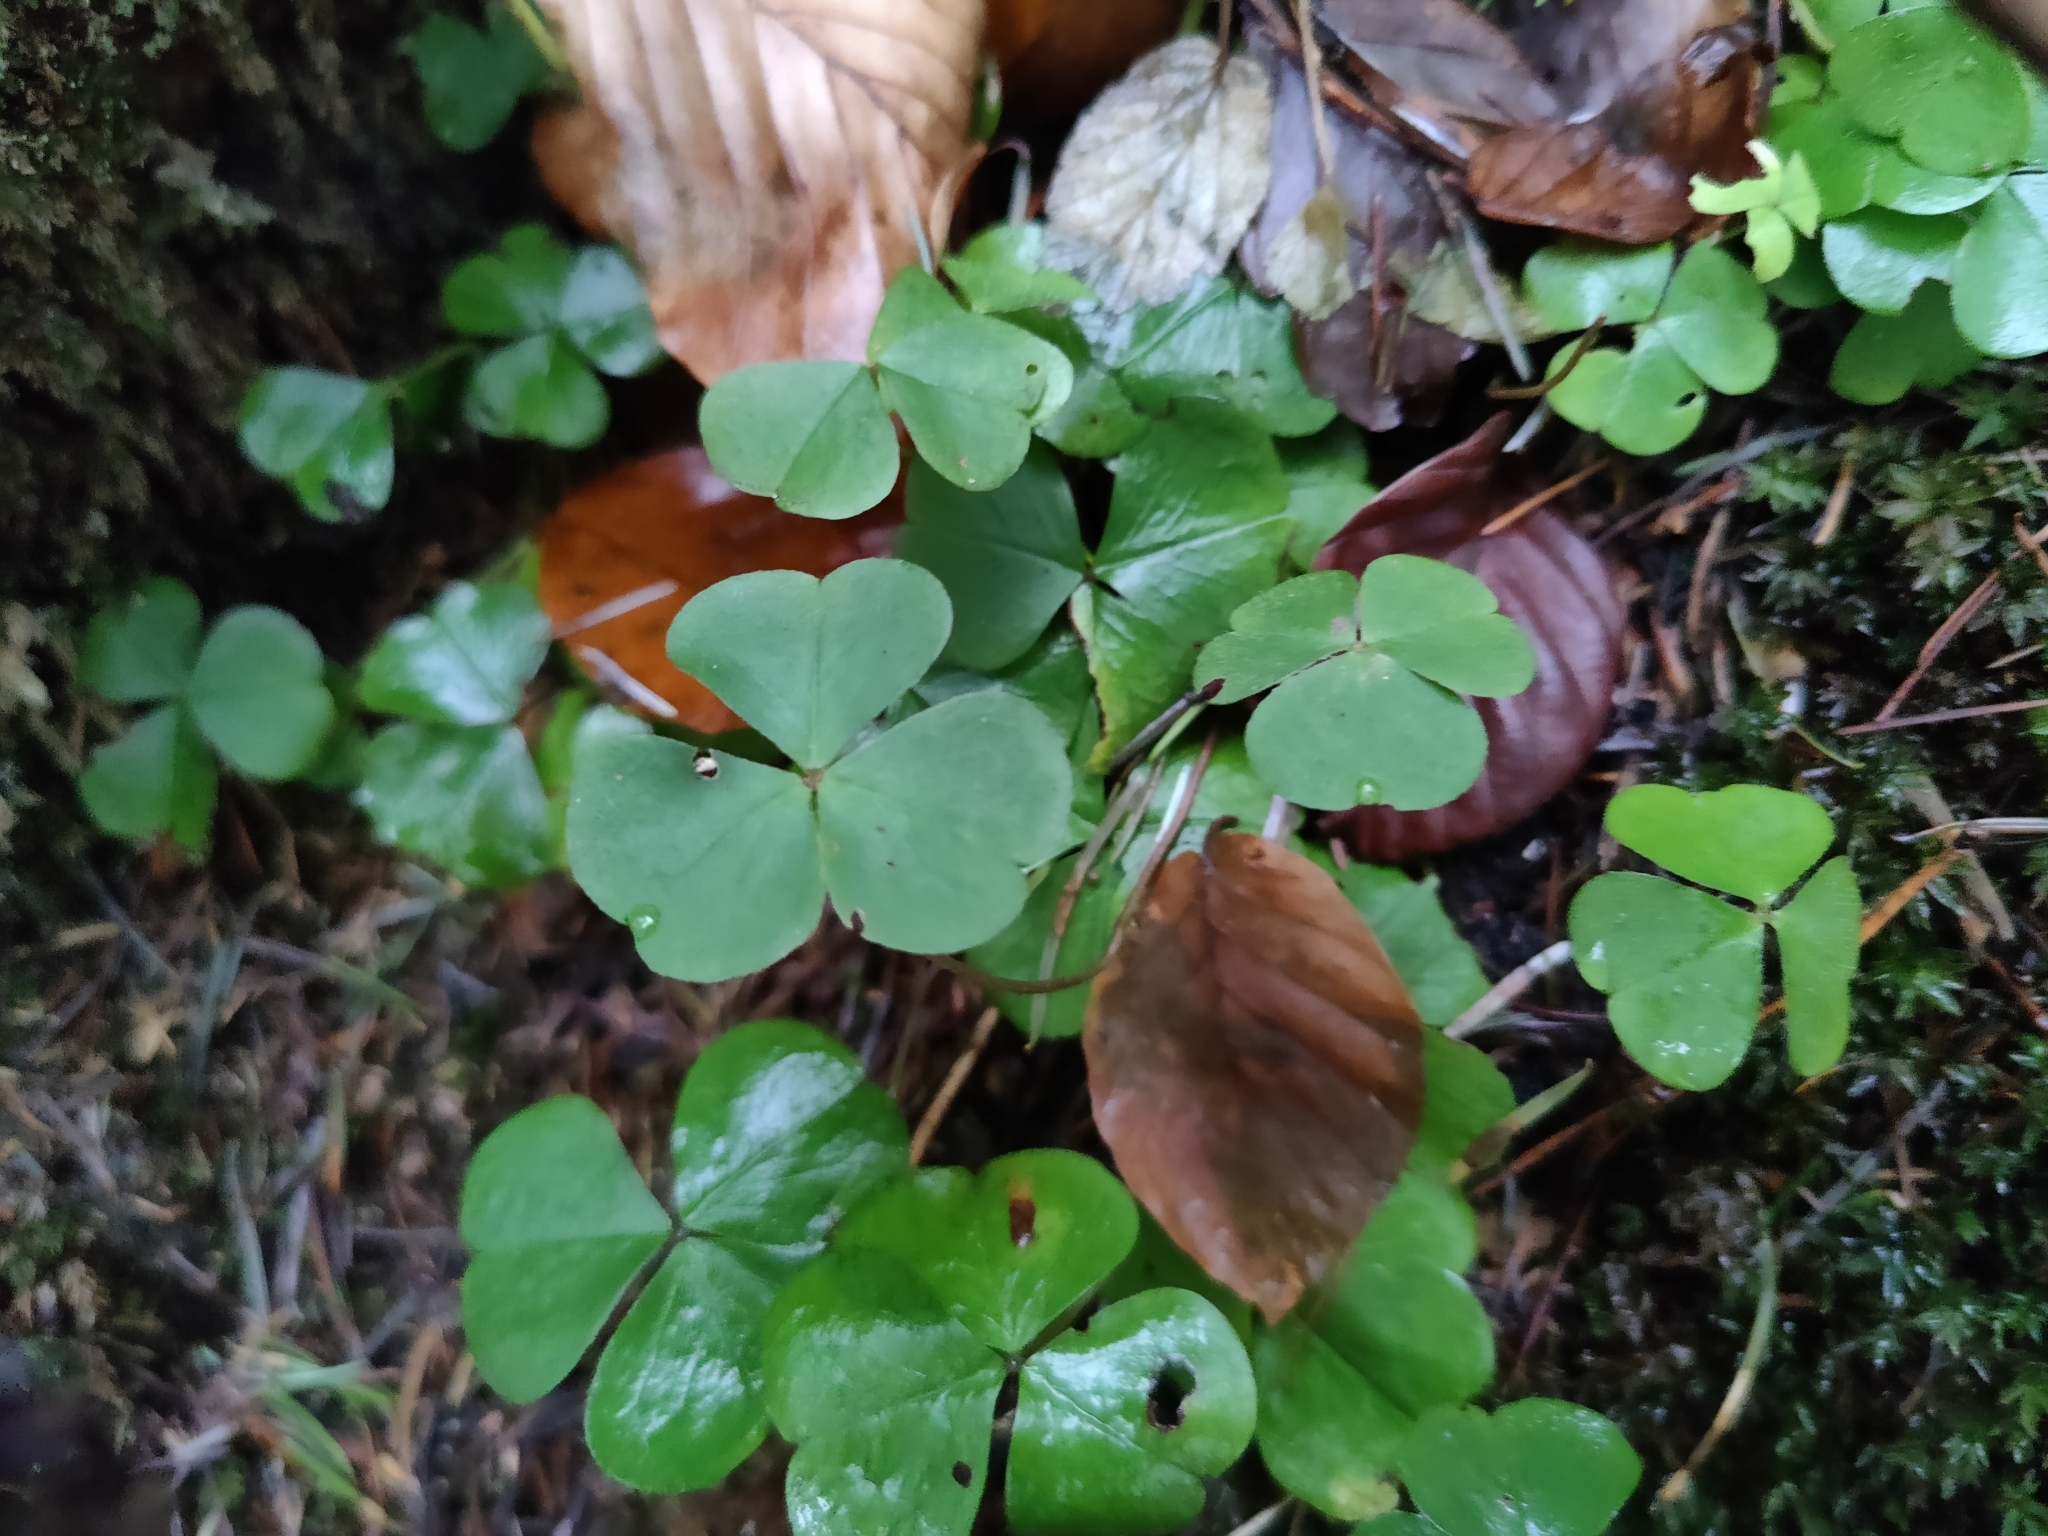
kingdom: Plantae
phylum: Tracheophyta
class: Magnoliopsida
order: Oxalidales
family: Oxalidaceae
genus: Oxalis
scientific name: Oxalis acetosella
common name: Wood-sorrel
